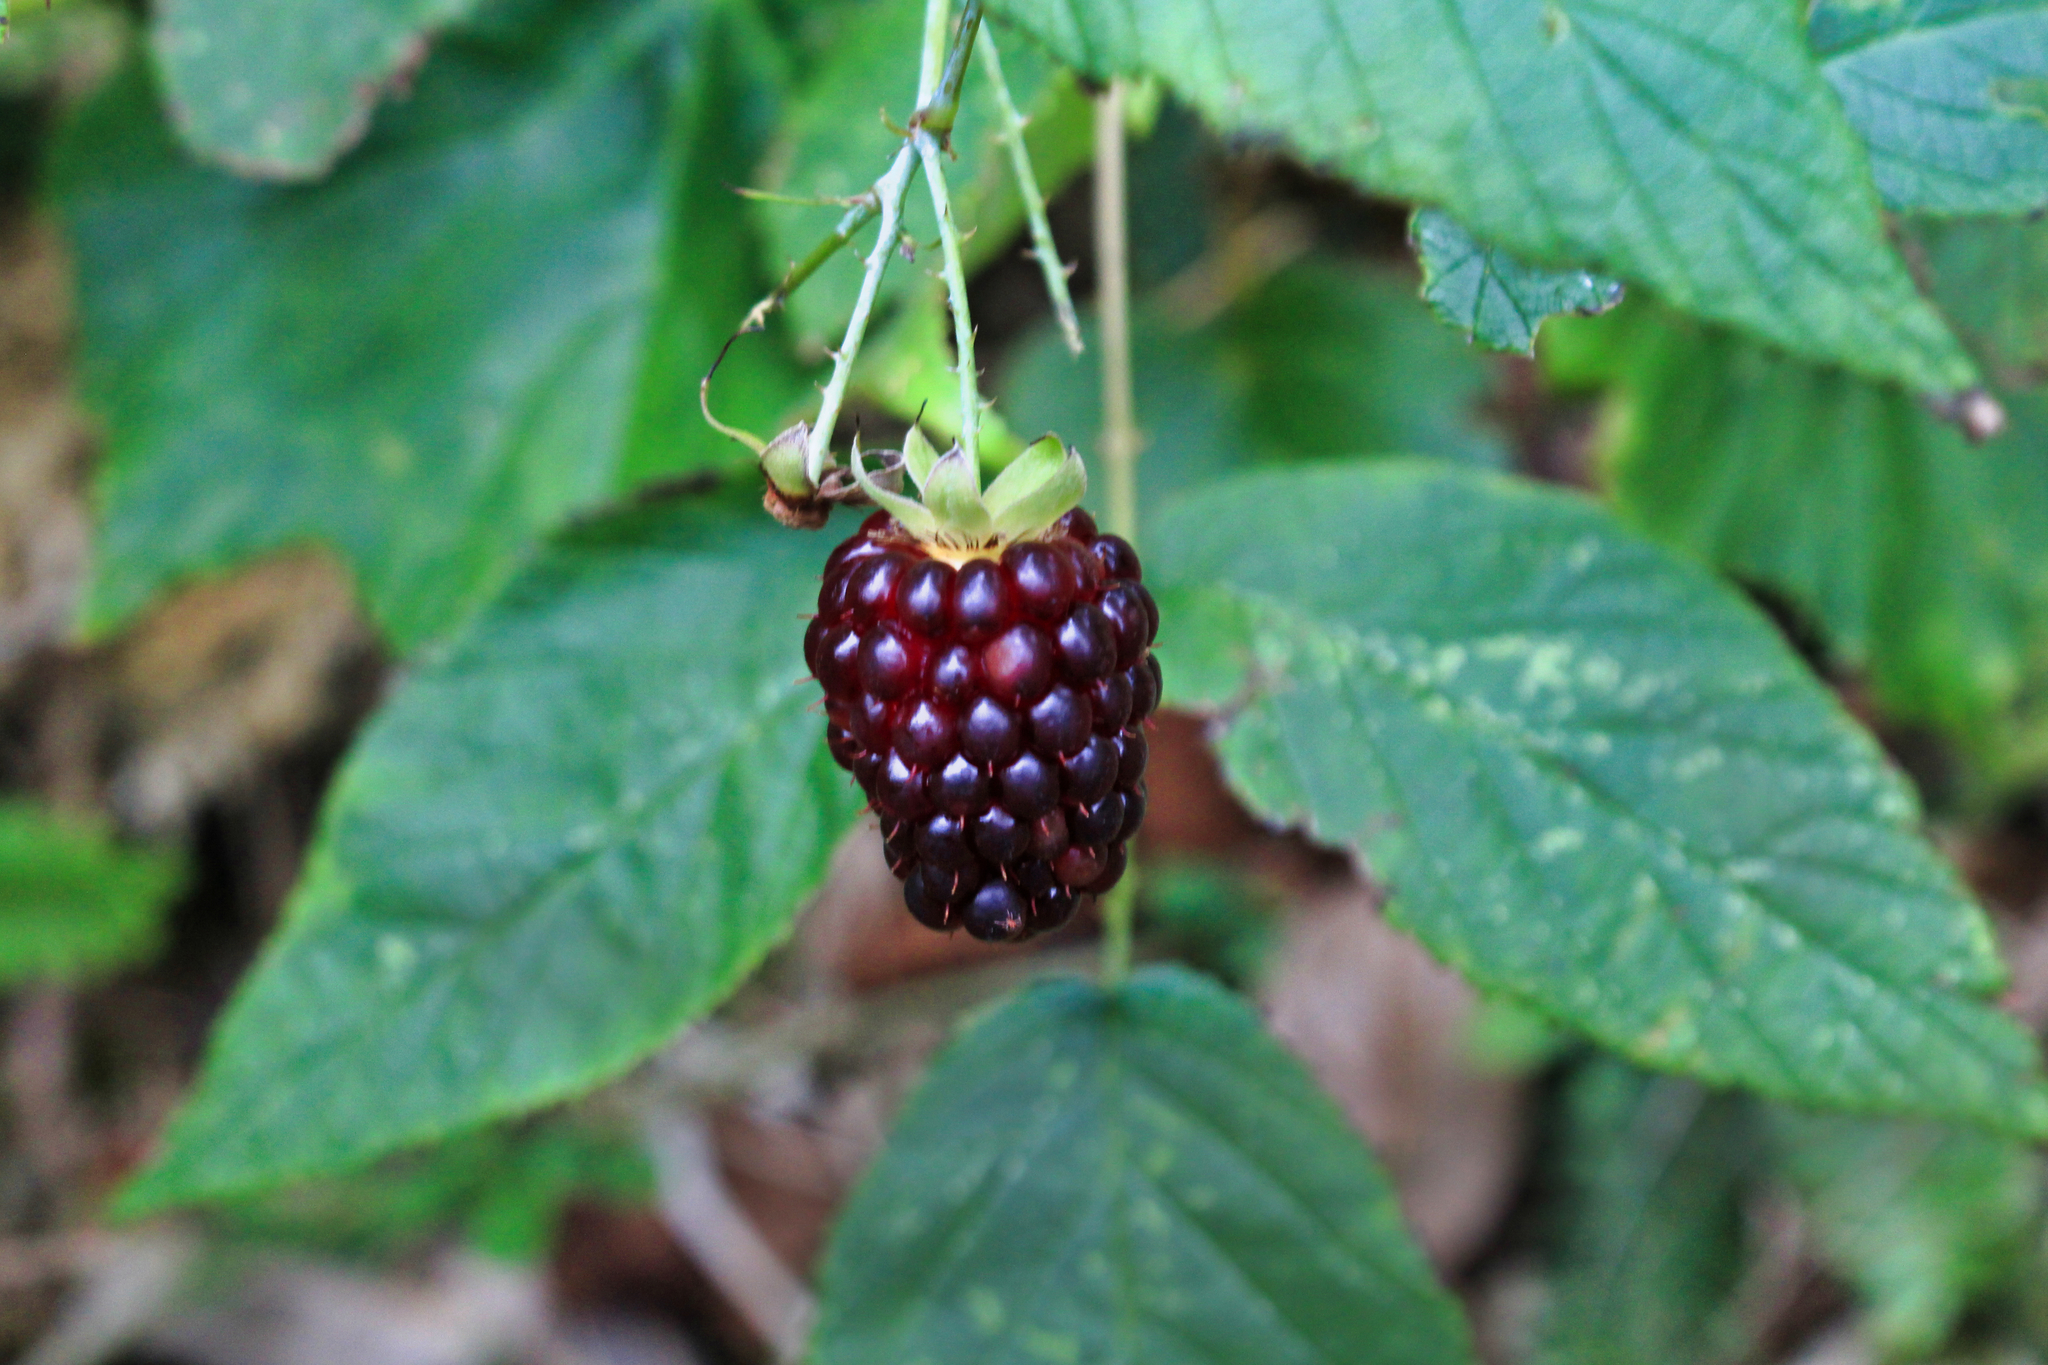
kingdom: Plantae
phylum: Tracheophyta
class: Magnoliopsida
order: Rosales
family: Rosaceae
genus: Rubus
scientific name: Rubus glaucus
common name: Andean blackberry
